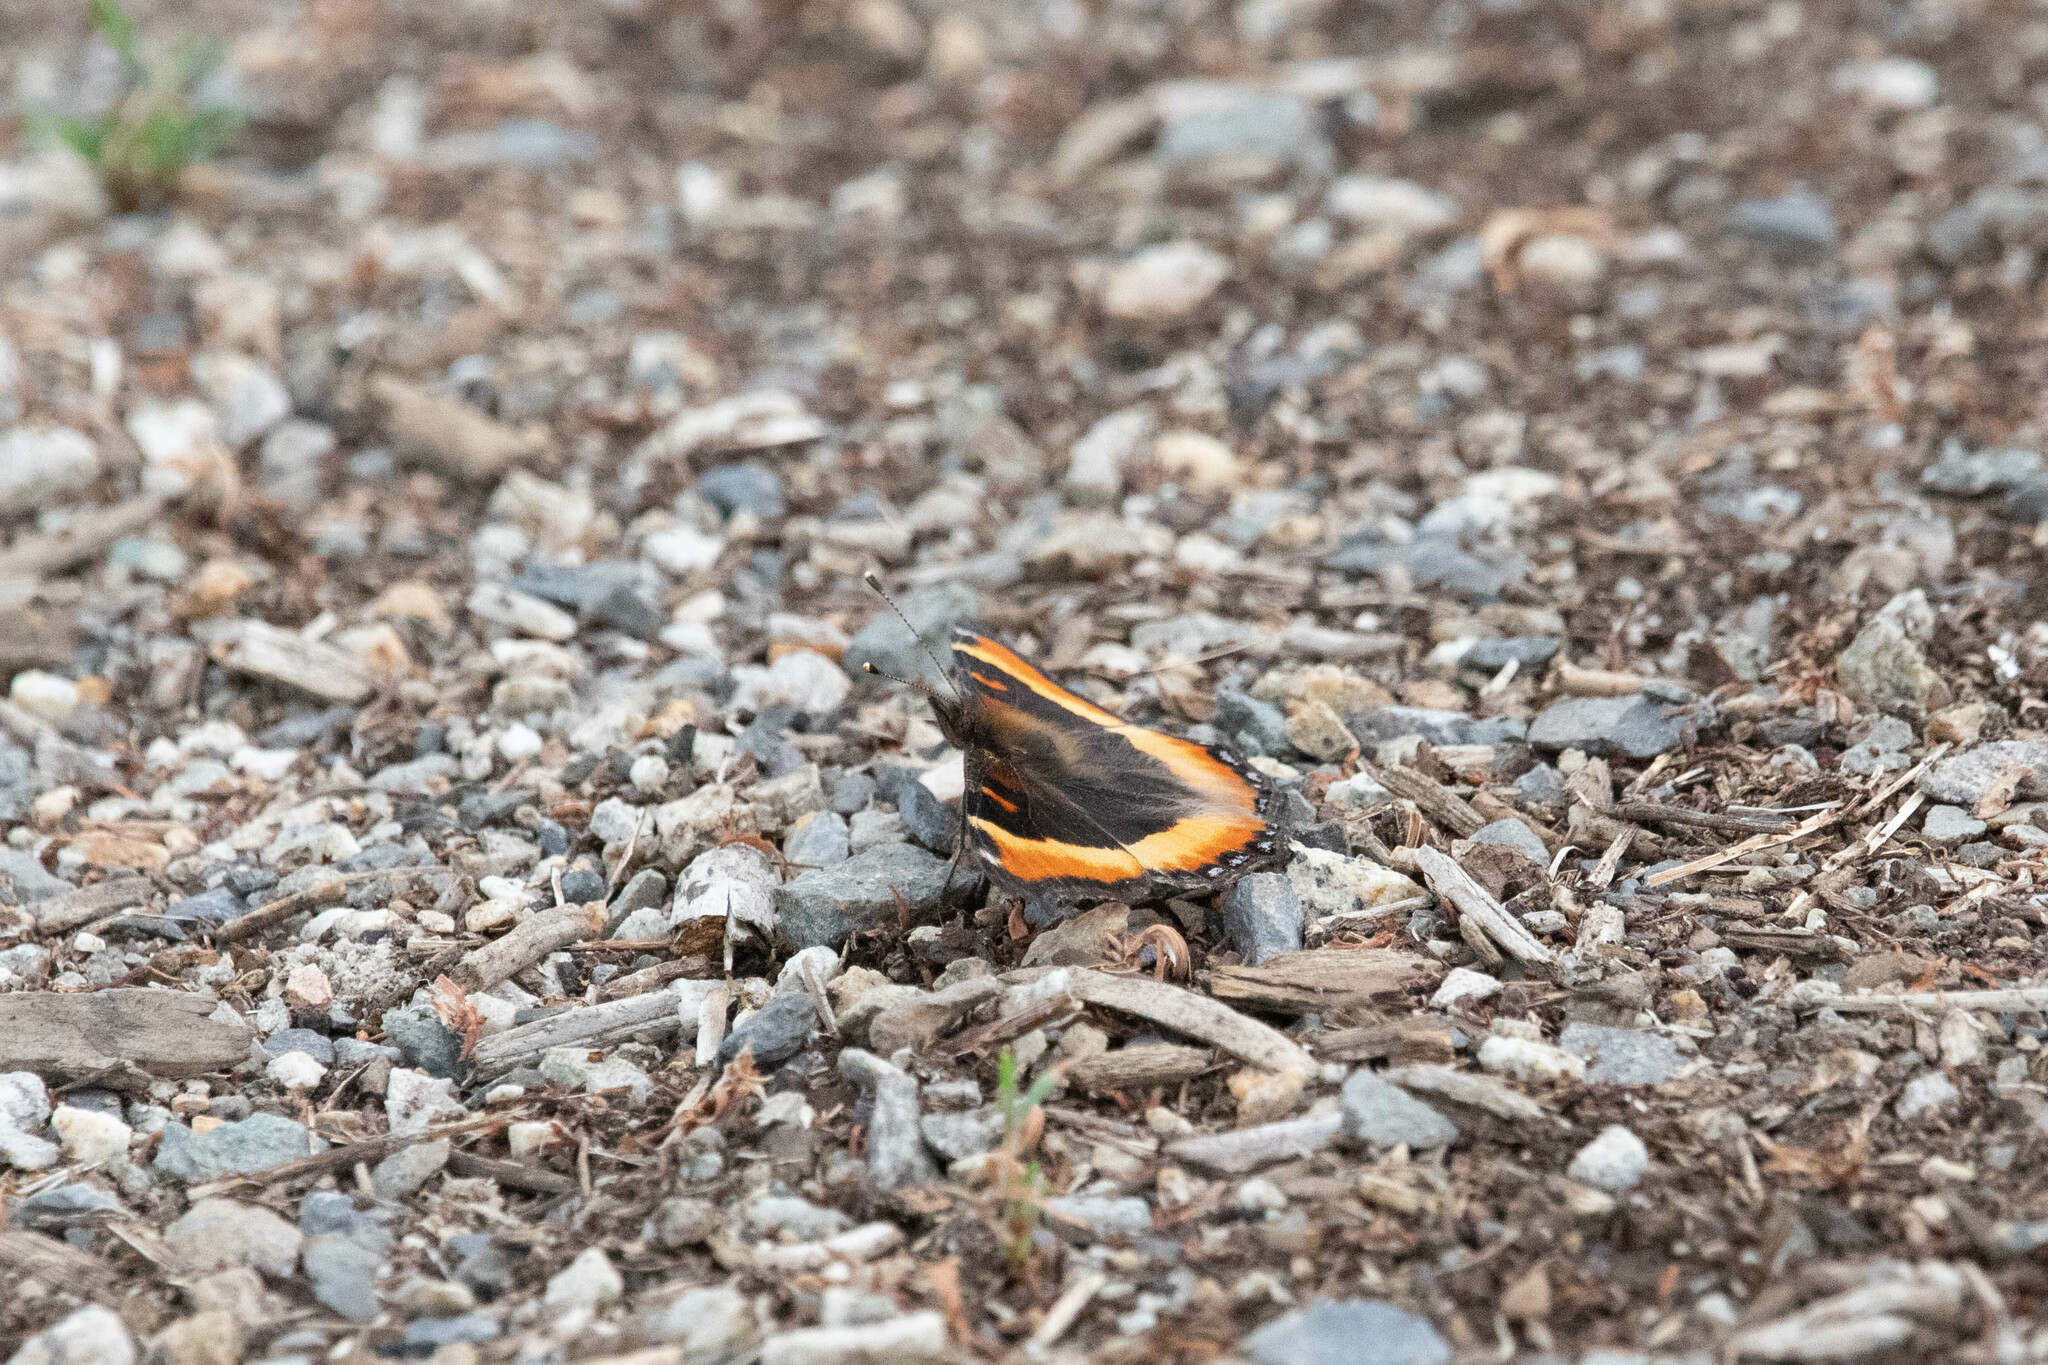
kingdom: Animalia
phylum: Arthropoda
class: Insecta
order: Lepidoptera
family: Nymphalidae
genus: Aglais
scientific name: Aglais milberti
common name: Milbert's tortoiseshell
